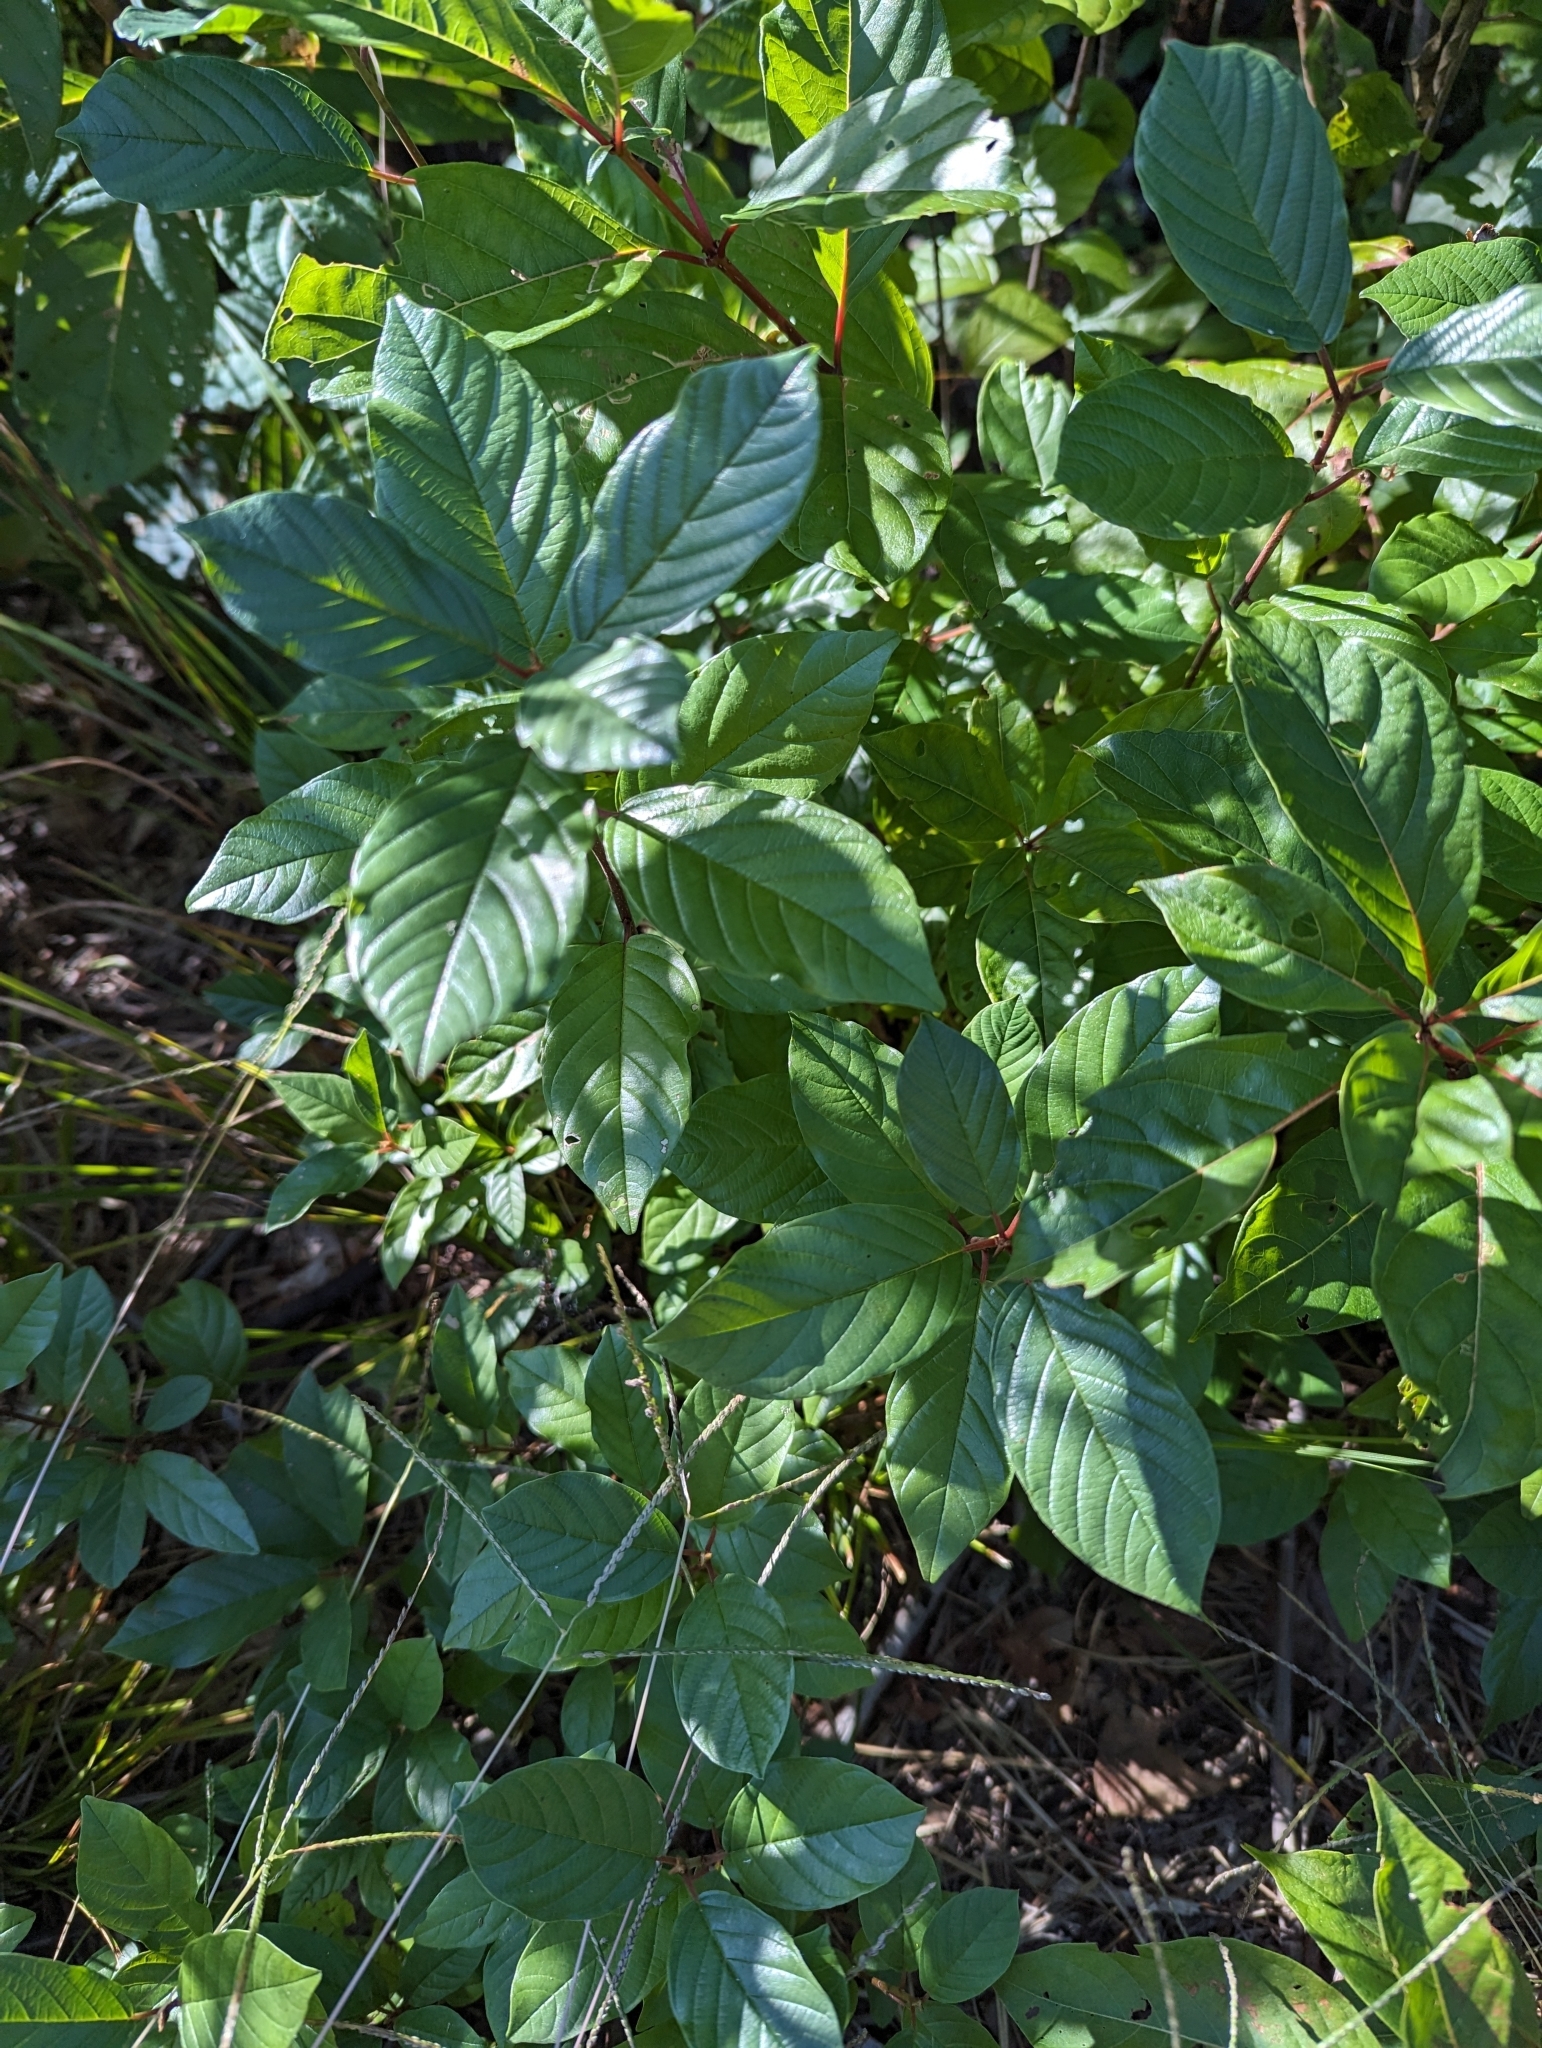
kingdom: Plantae
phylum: Tracheophyta
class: Magnoliopsida
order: Rosales
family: Rhamnaceae
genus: Frangula
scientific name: Frangula alnus
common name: Alder buckthorn
